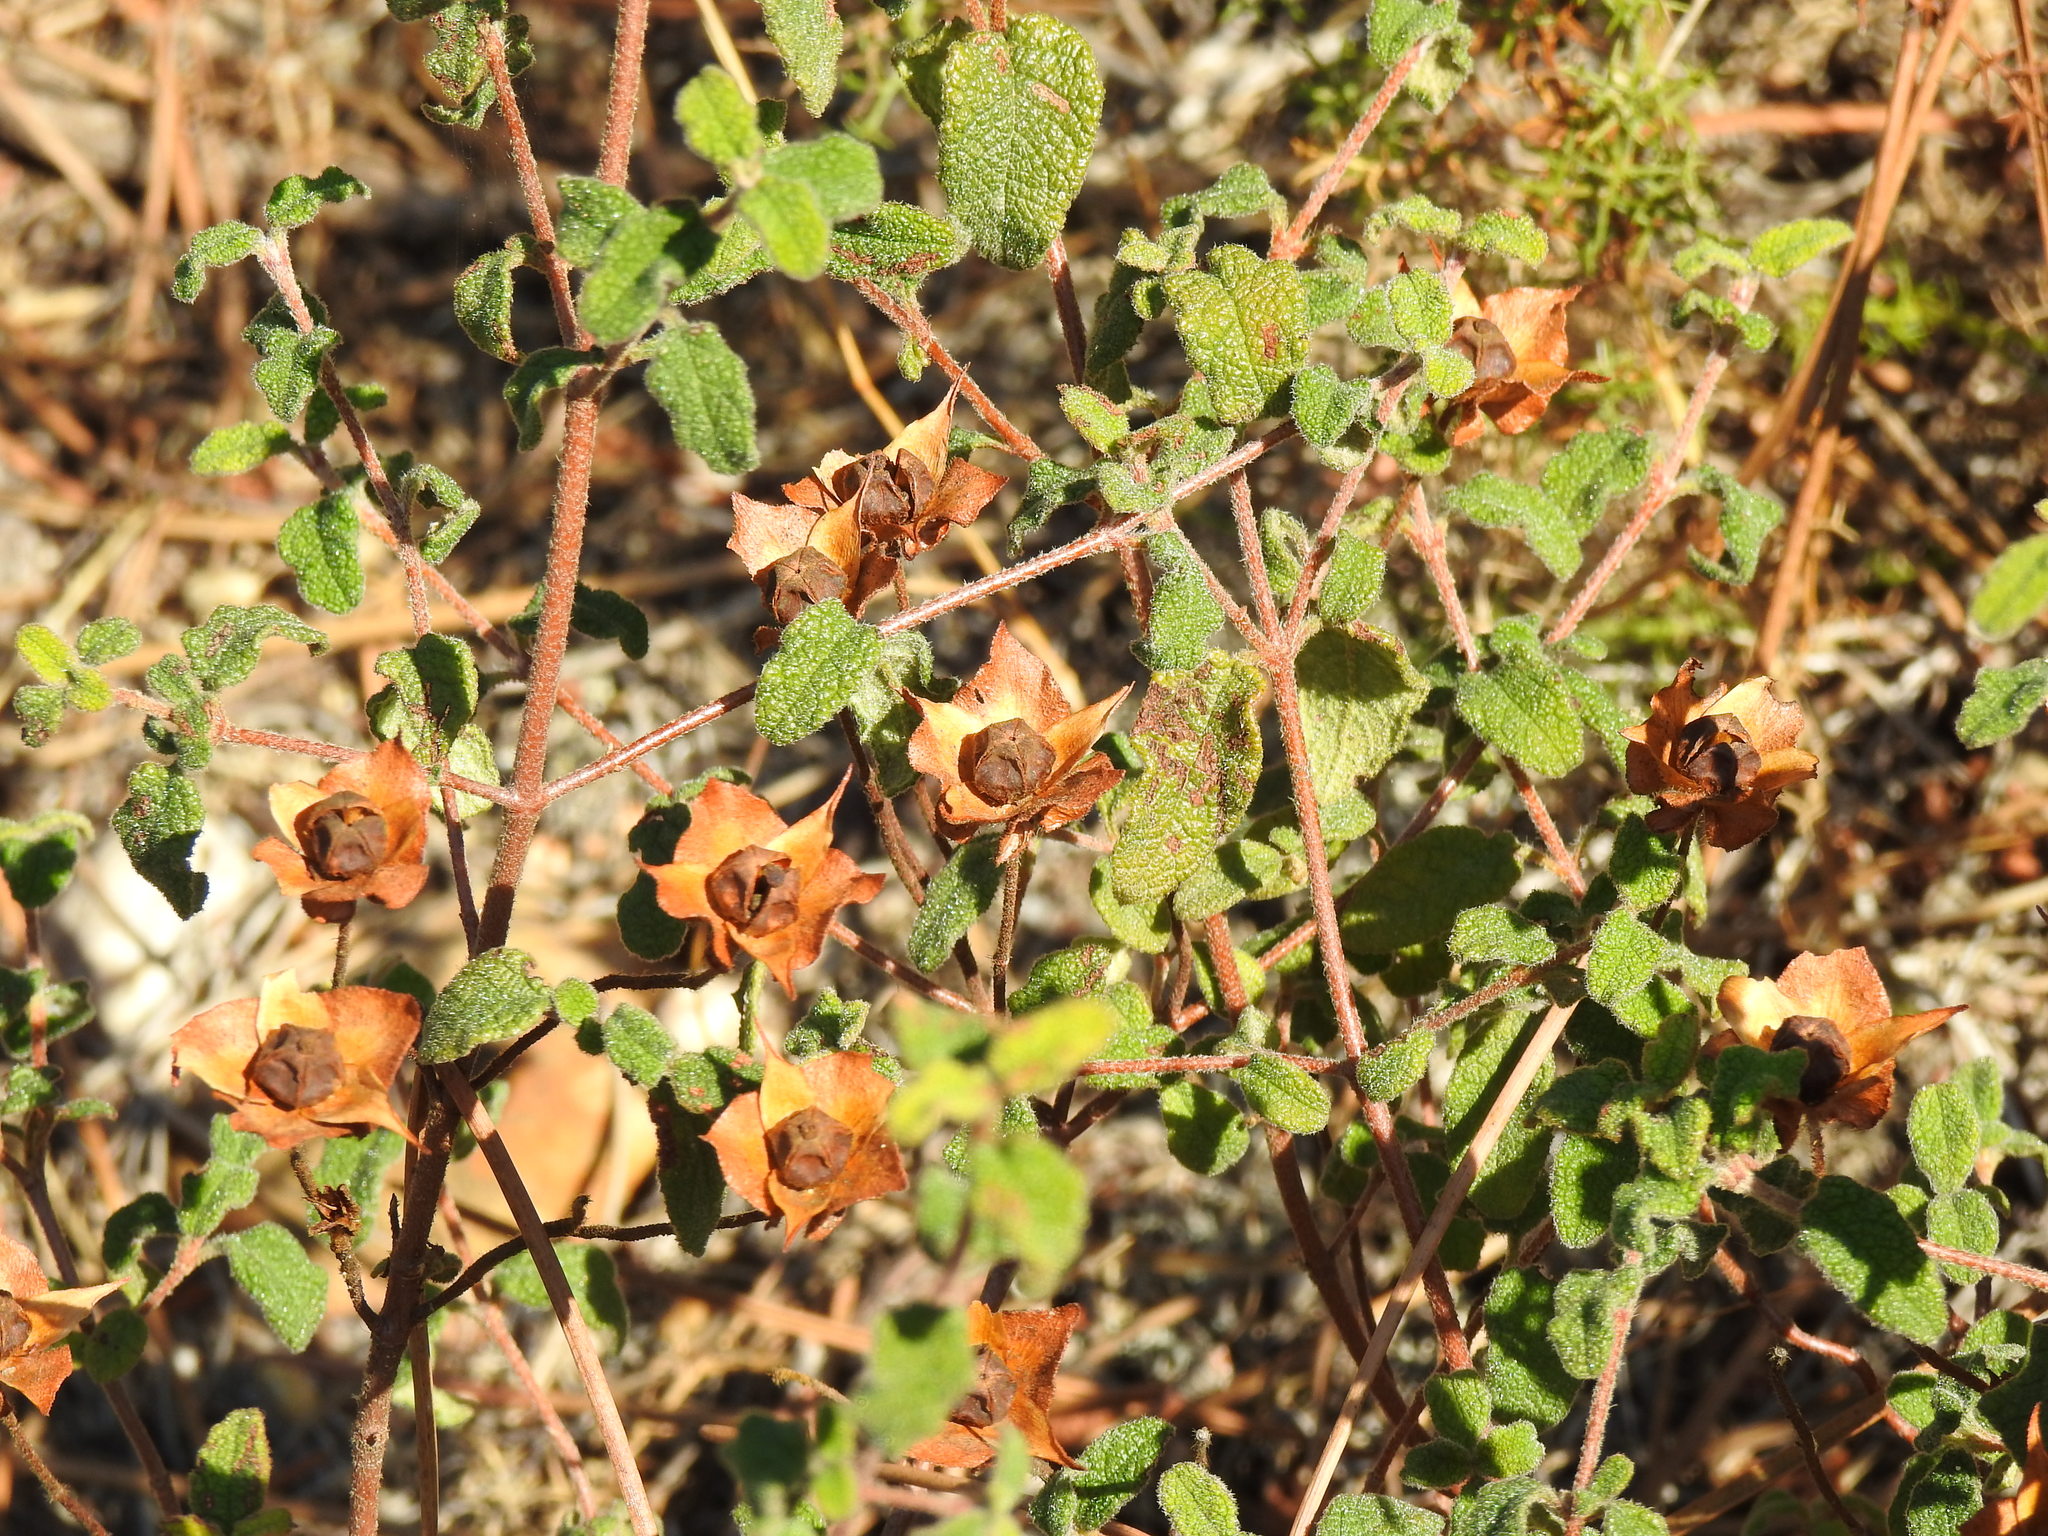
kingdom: Plantae
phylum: Tracheophyta
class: Magnoliopsida
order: Malvales
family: Cistaceae
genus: Cistus
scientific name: Cistus salviifolius
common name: Salvia cistus
